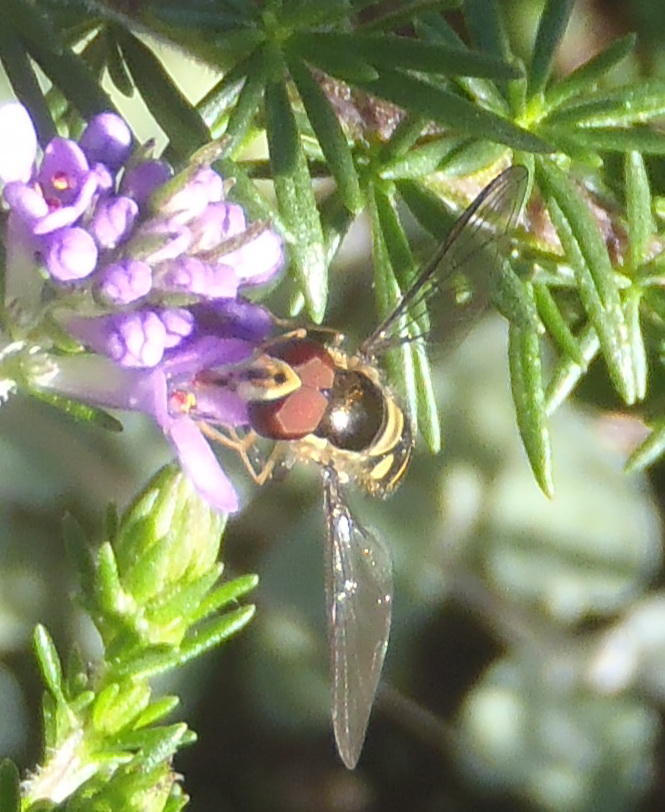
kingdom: Animalia
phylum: Arthropoda
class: Insecta
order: Diptera
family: Syrphidae
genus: Allograpta
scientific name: Allograpta fuscotibialis
